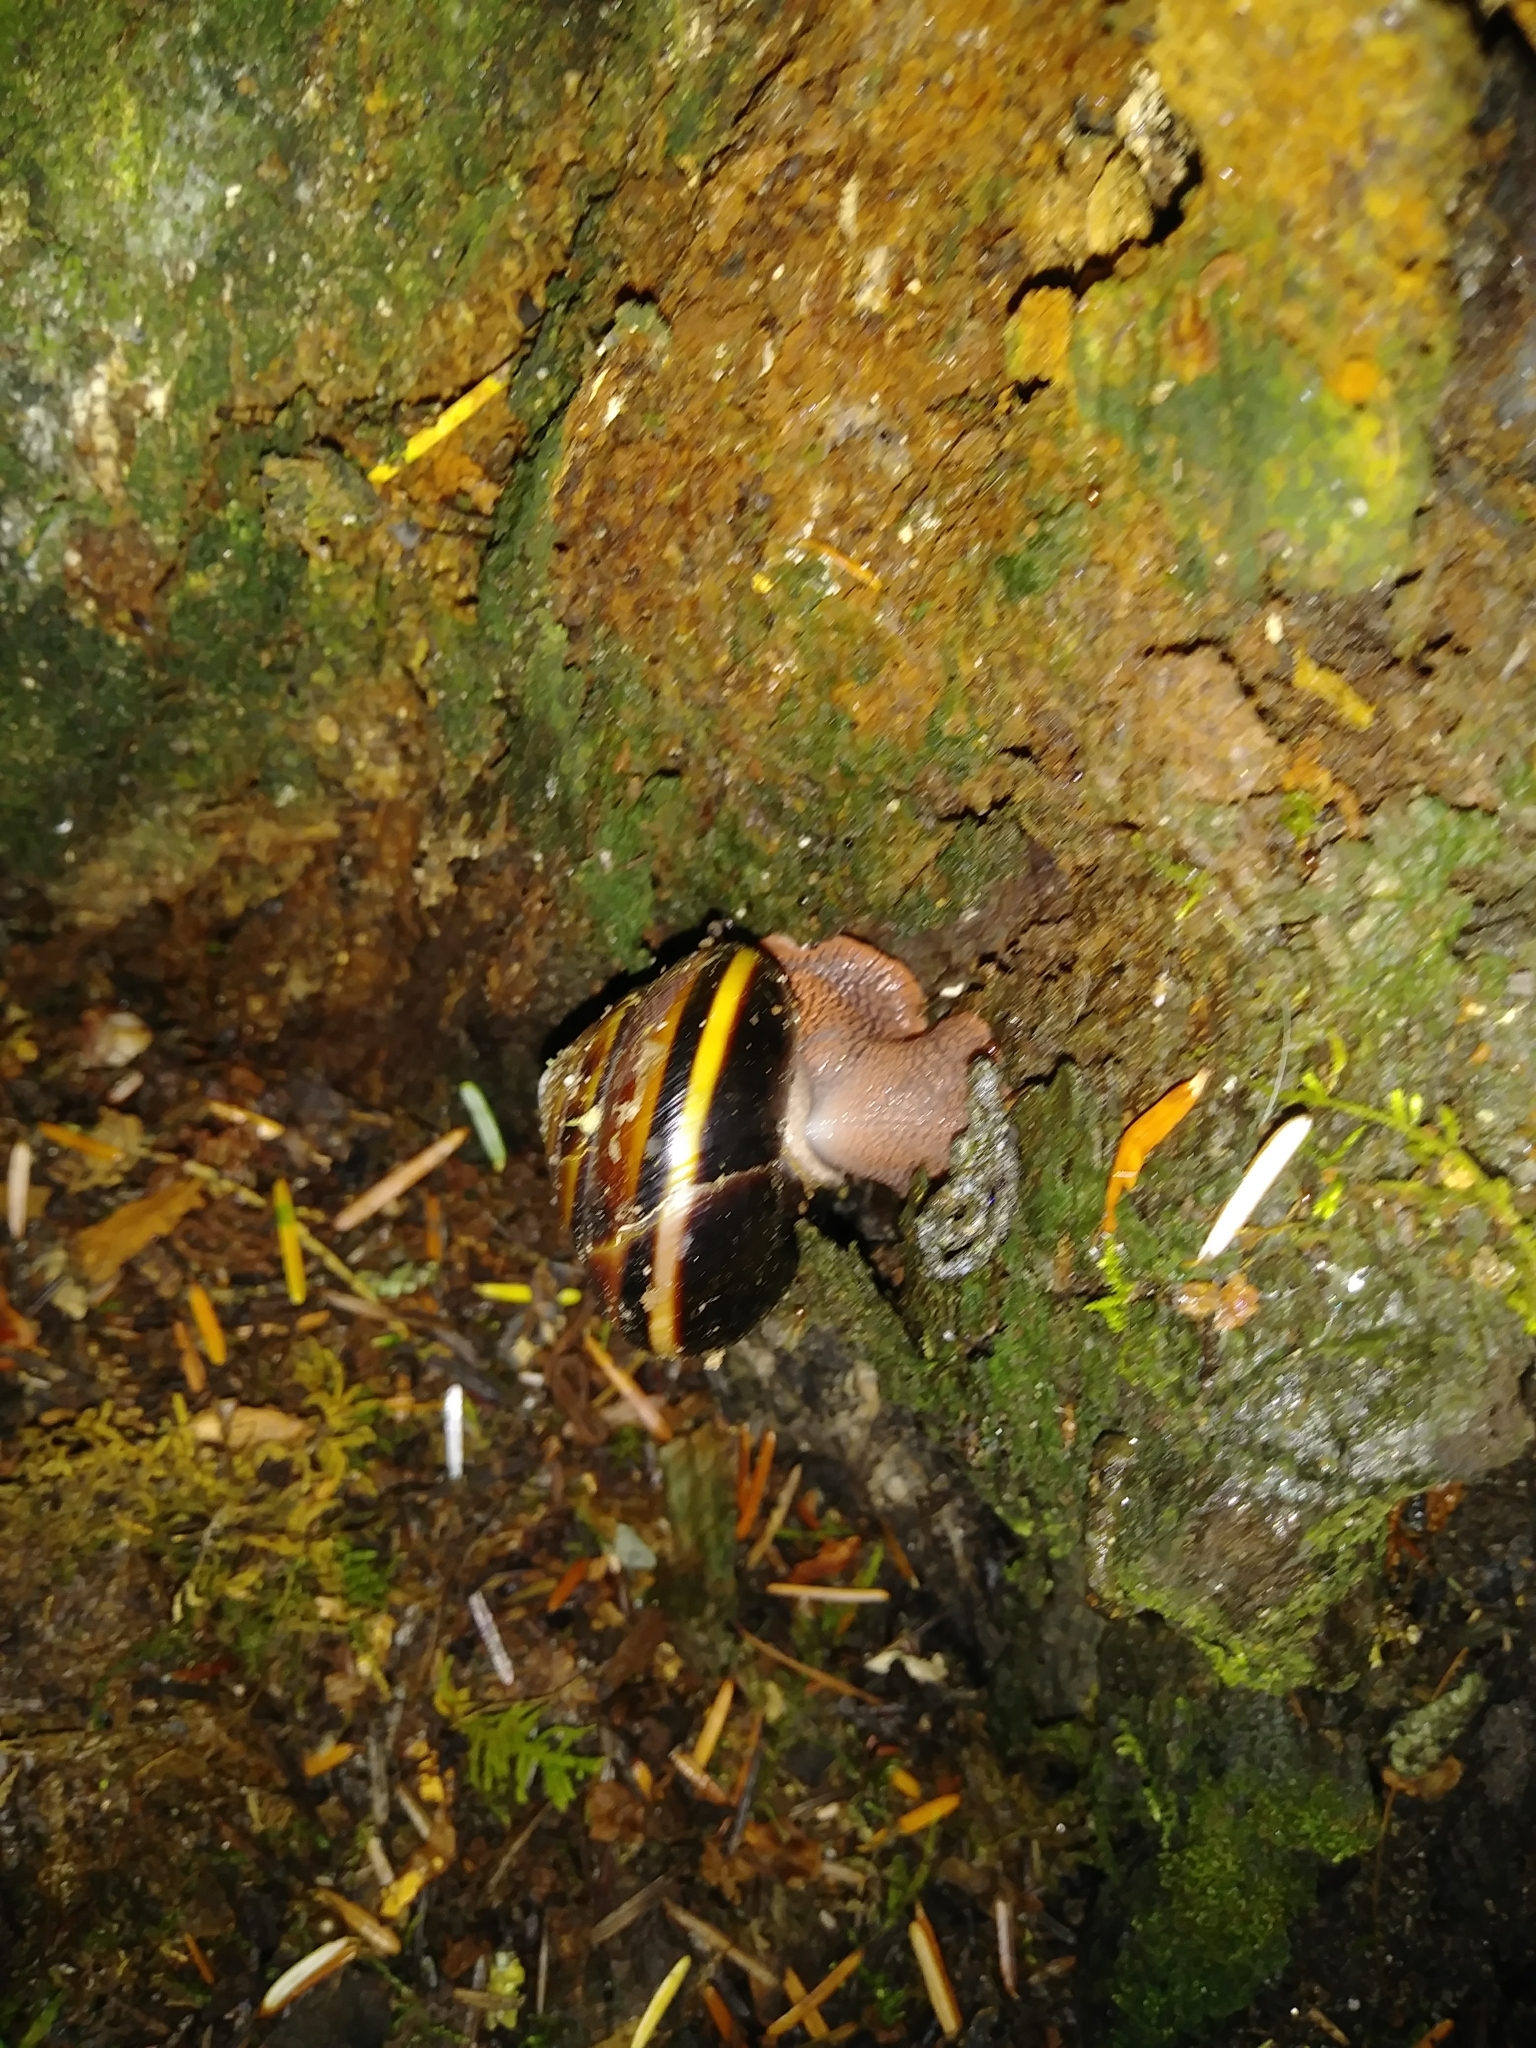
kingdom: Animalia
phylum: Mollusca
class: Gastropoda
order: Stylommatophora
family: Xanthonychidae
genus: Monadenia
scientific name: Monadenia fidelis
